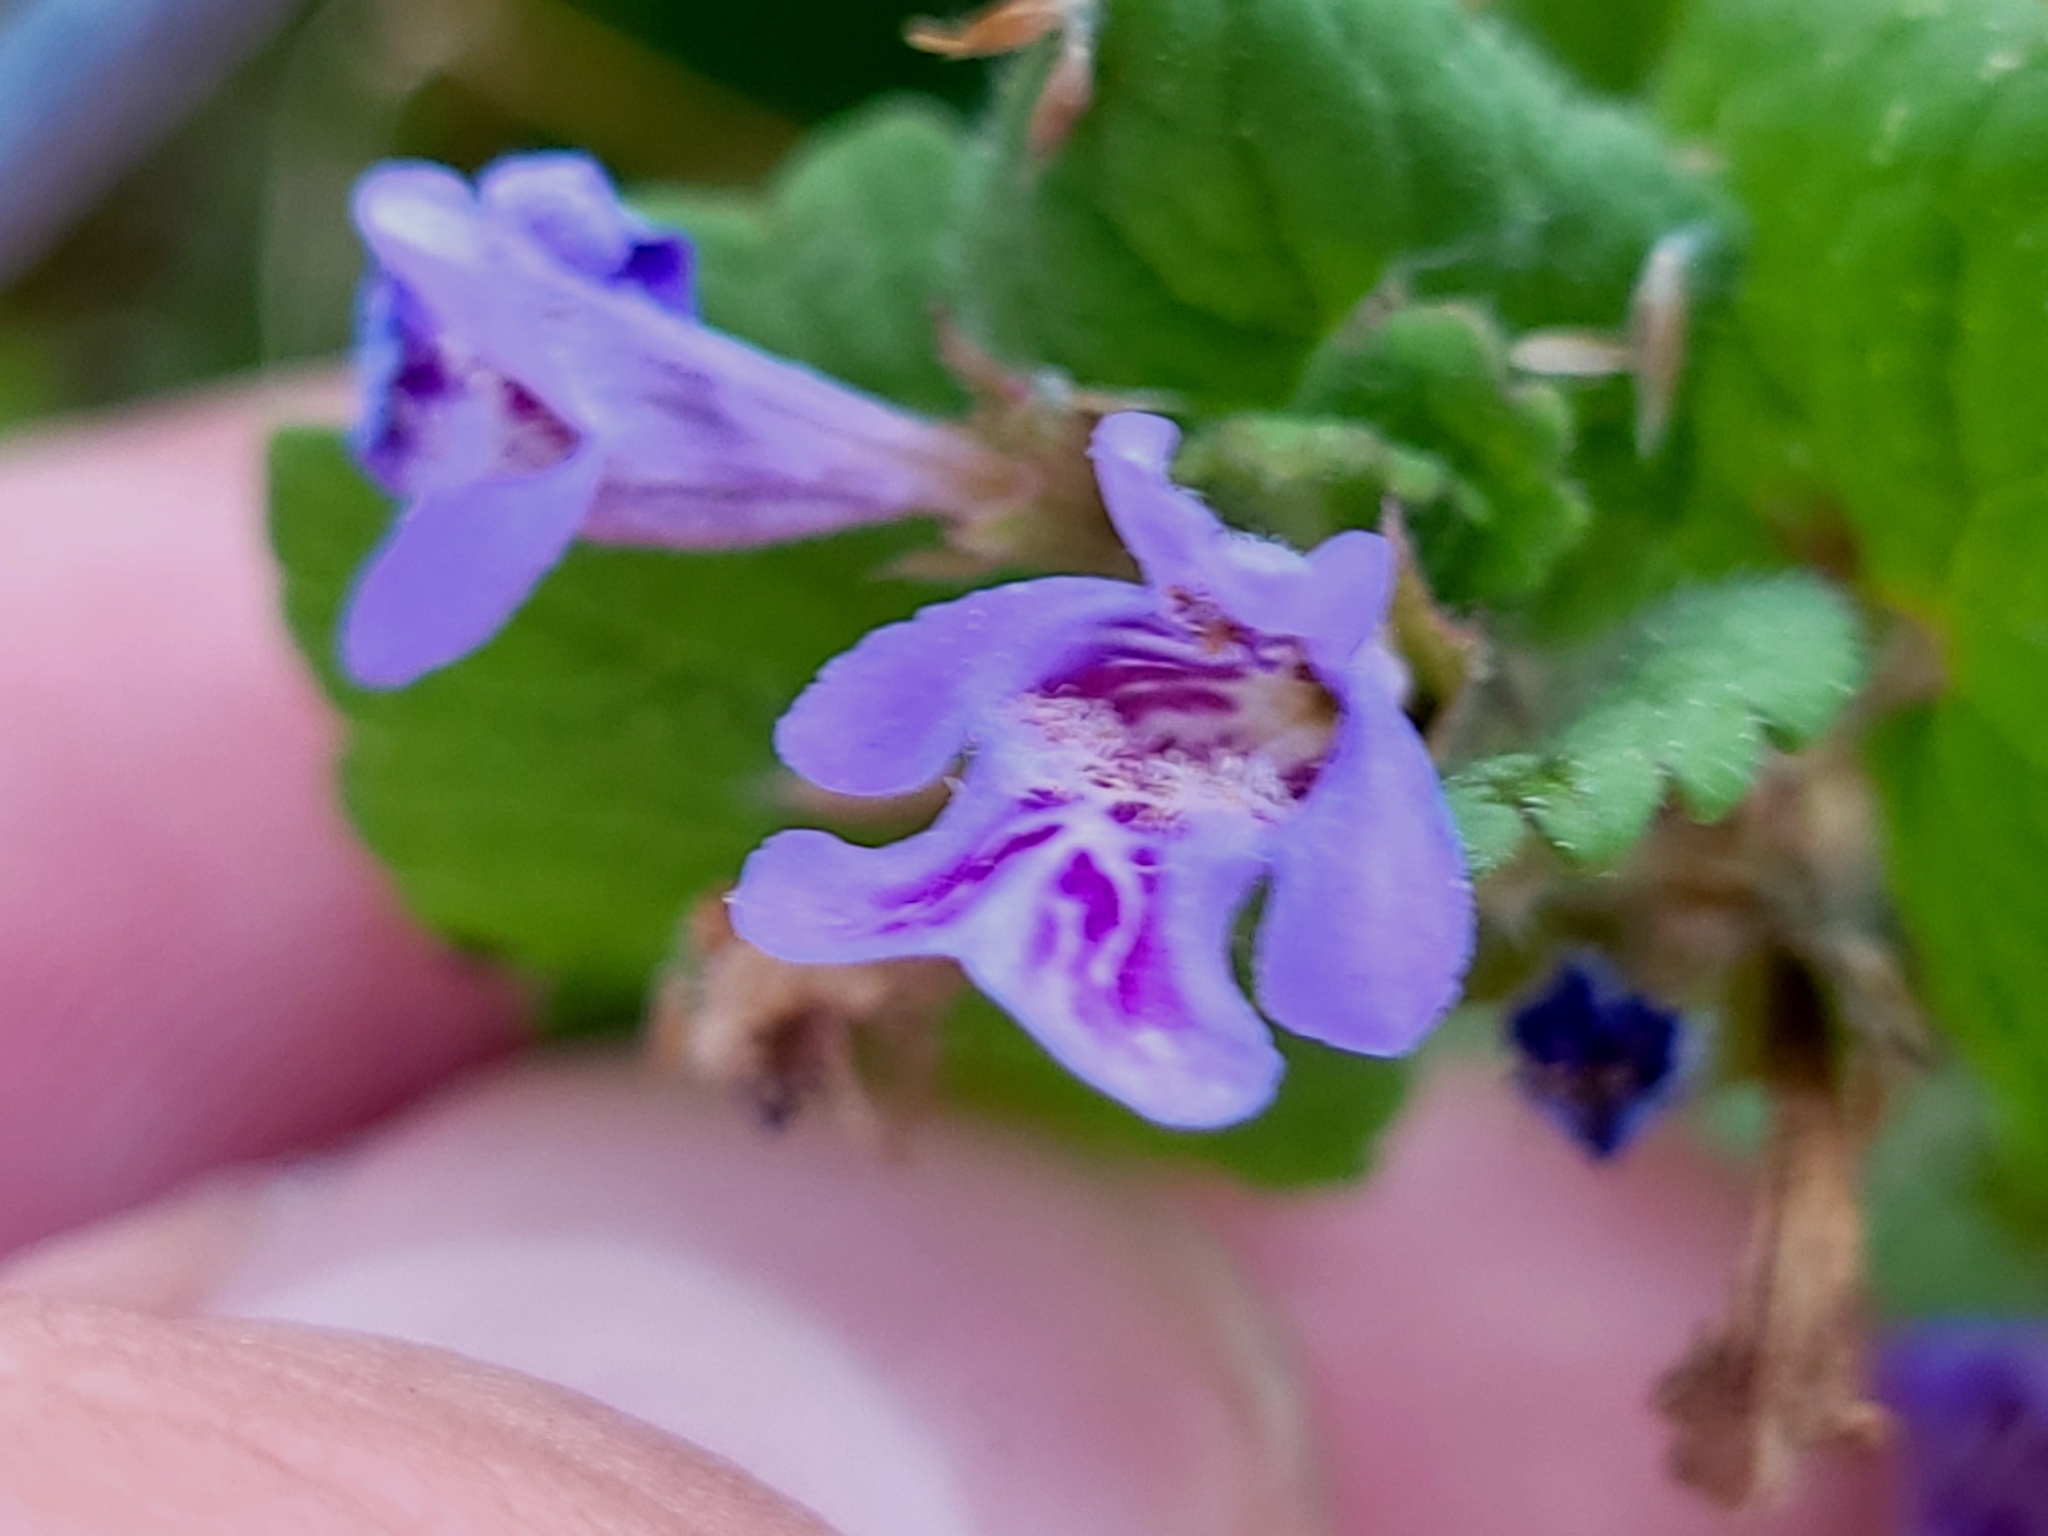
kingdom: Plantae
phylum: Tracheophyta
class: Magnoliopsida
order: Lamiales
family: Lamiaceae
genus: Glechoma
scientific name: Glechoma hederacea
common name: Ground ivy
